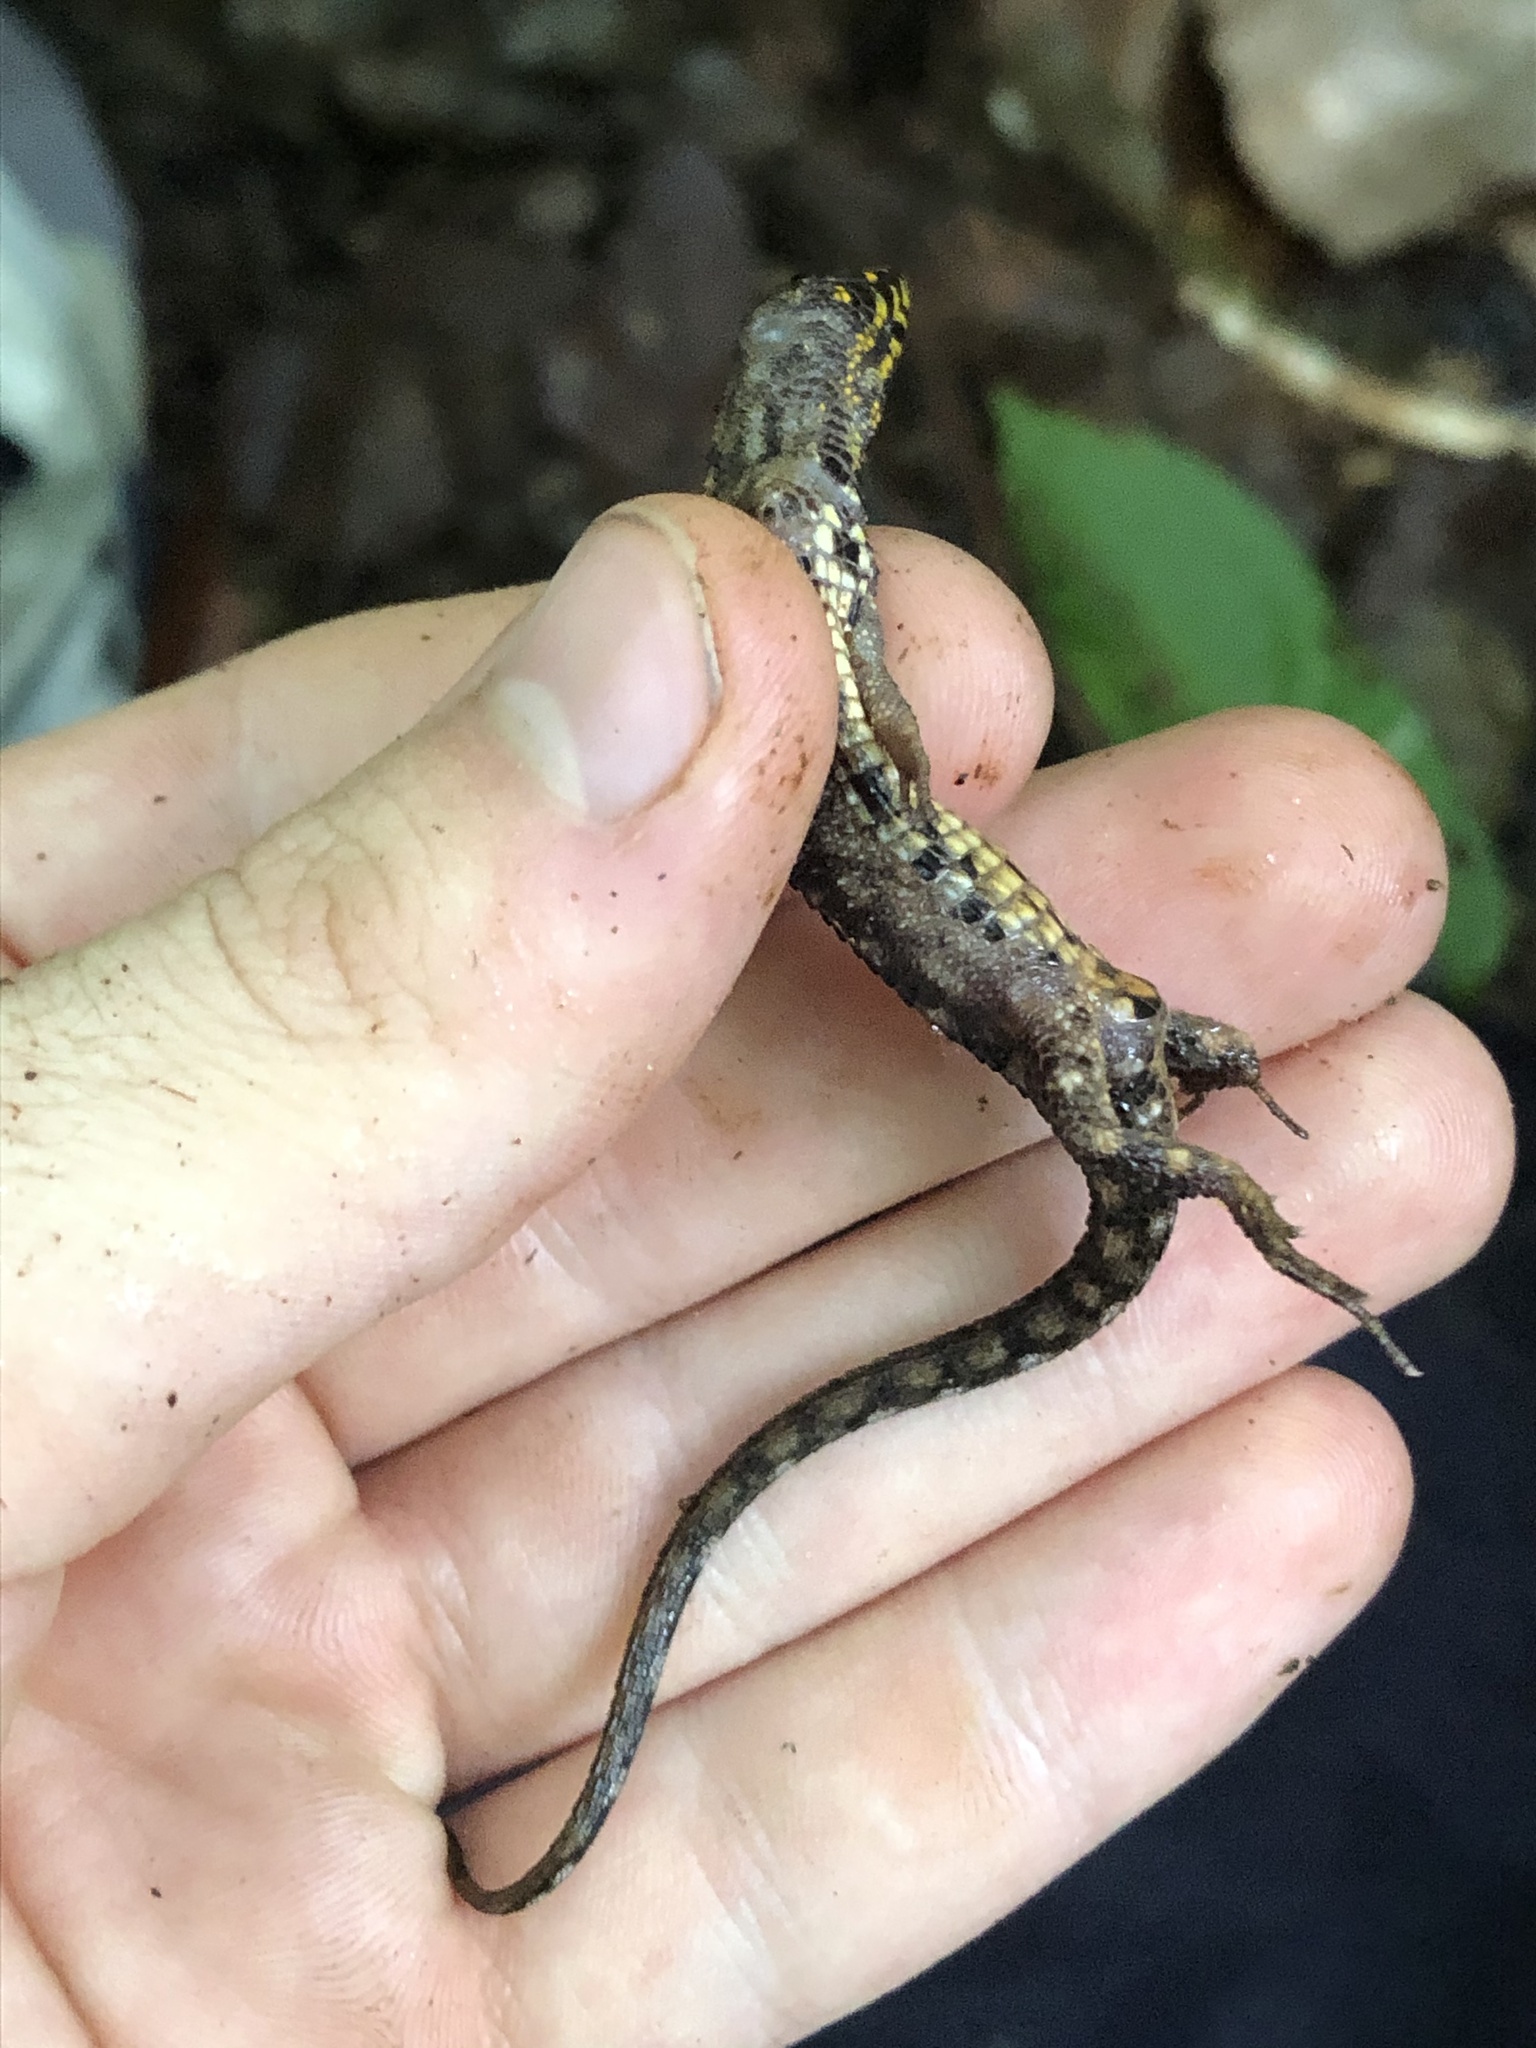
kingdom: Animalia
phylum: Chordata
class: Squamata
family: Gymnophthalmidae
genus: Potamites
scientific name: Potamites erythrocularis
